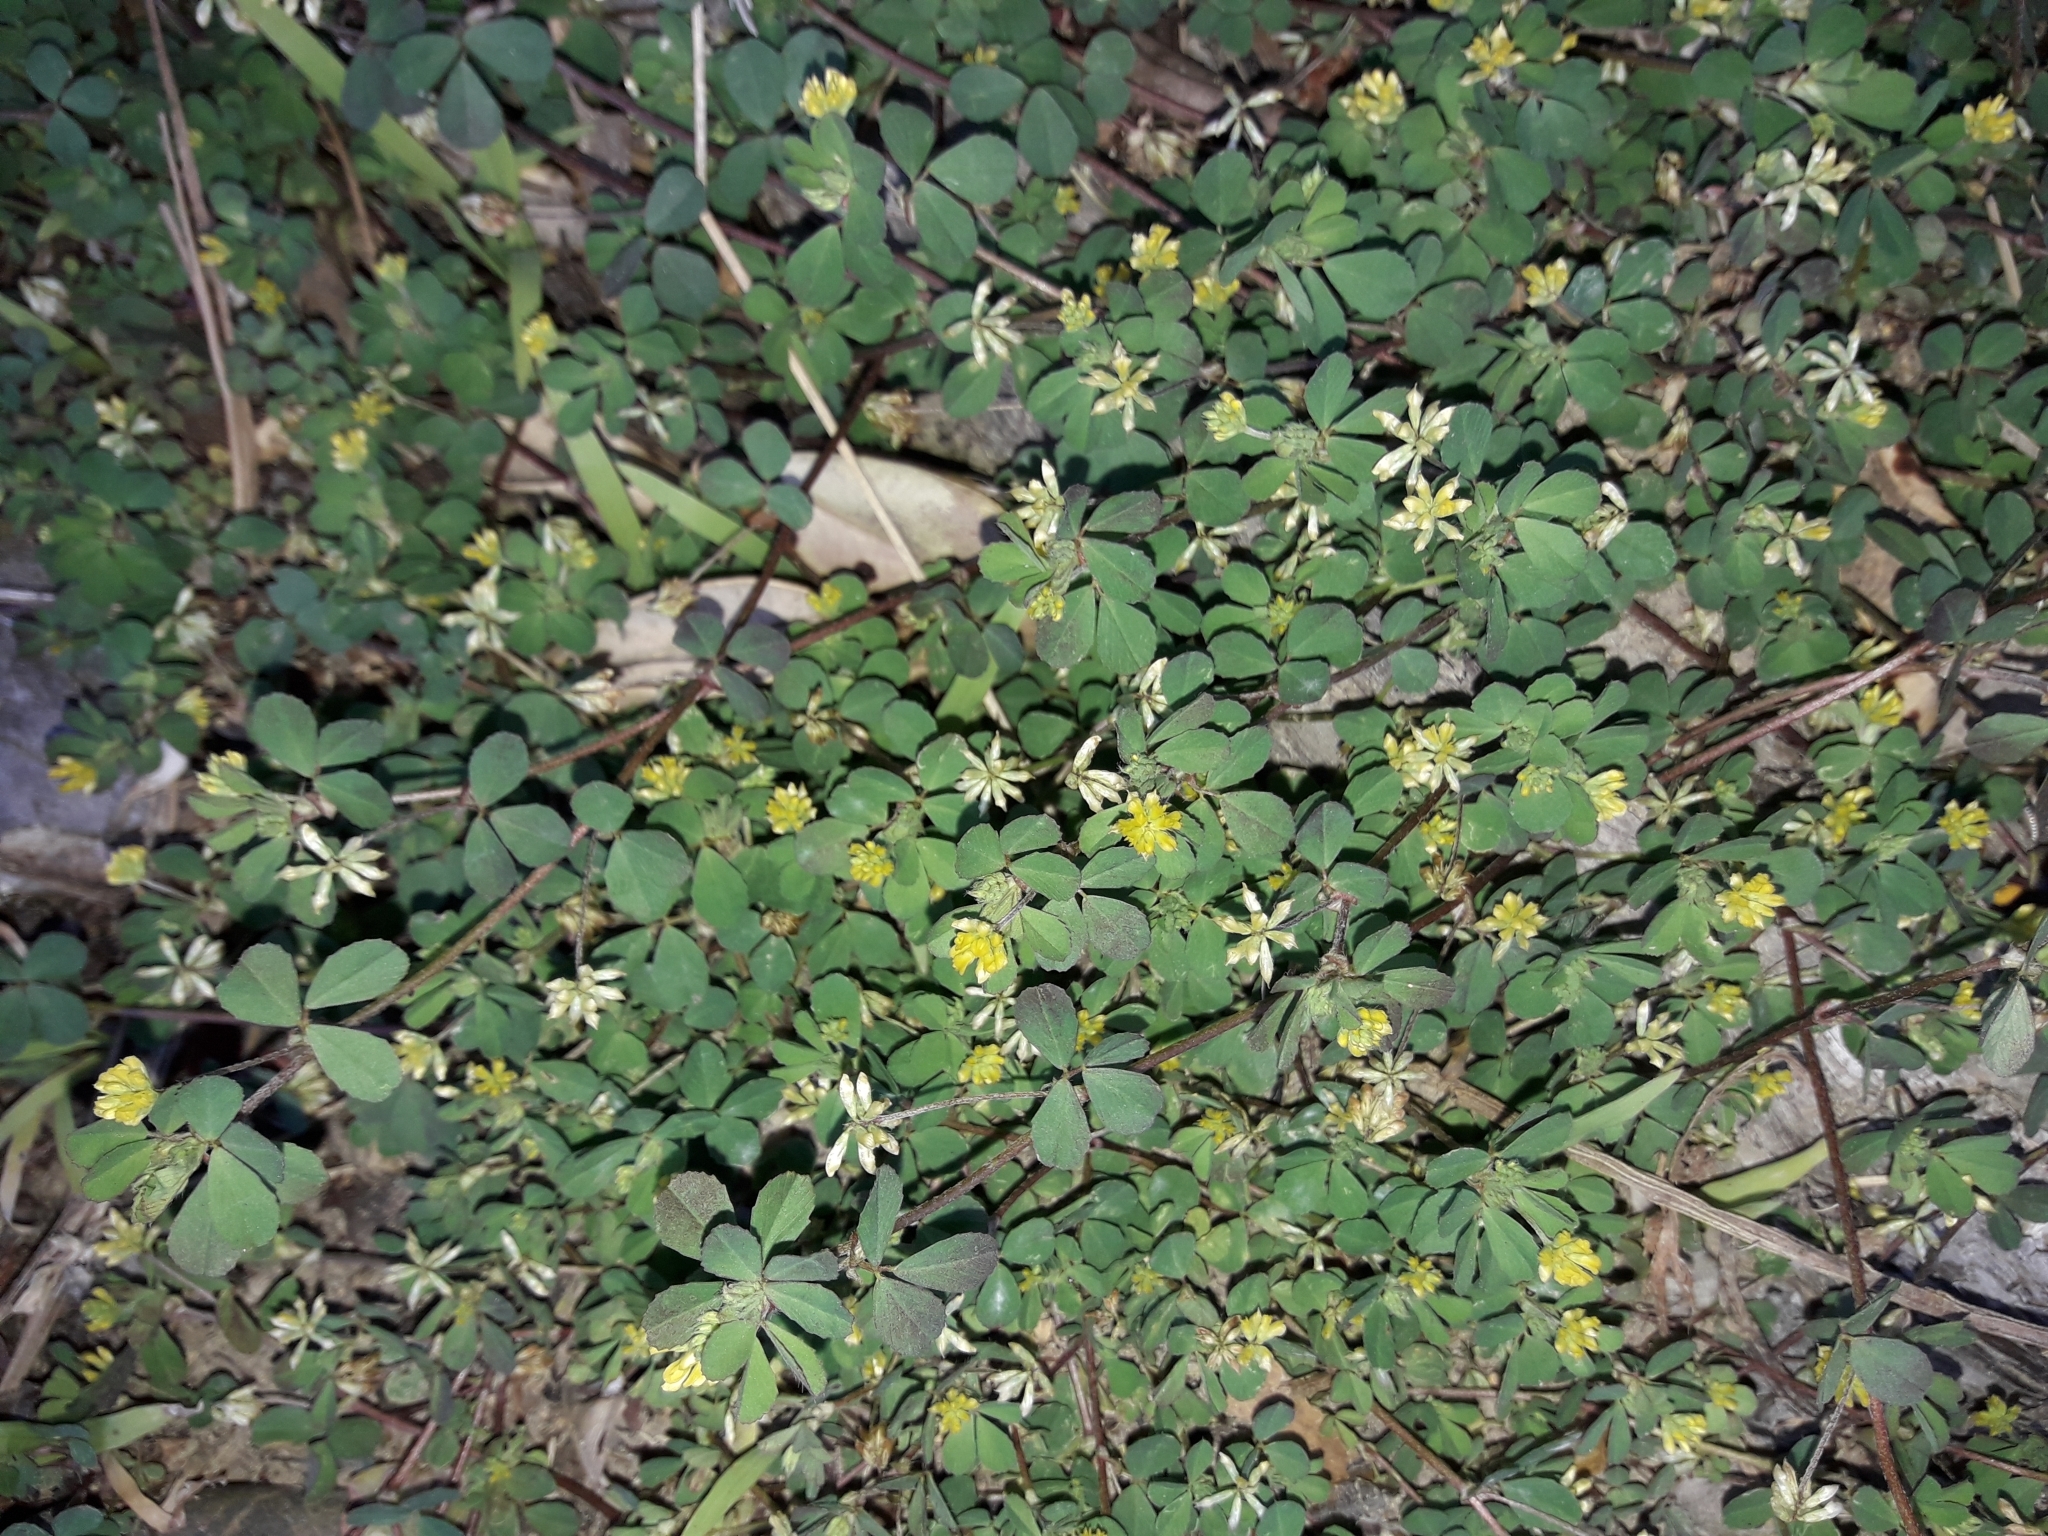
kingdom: Plantae
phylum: Tracheophyta
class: Magnoliopsida
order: Fabales
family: Fabaceae
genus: Trifolium
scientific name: Trifolium dubium
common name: Suckling clover
